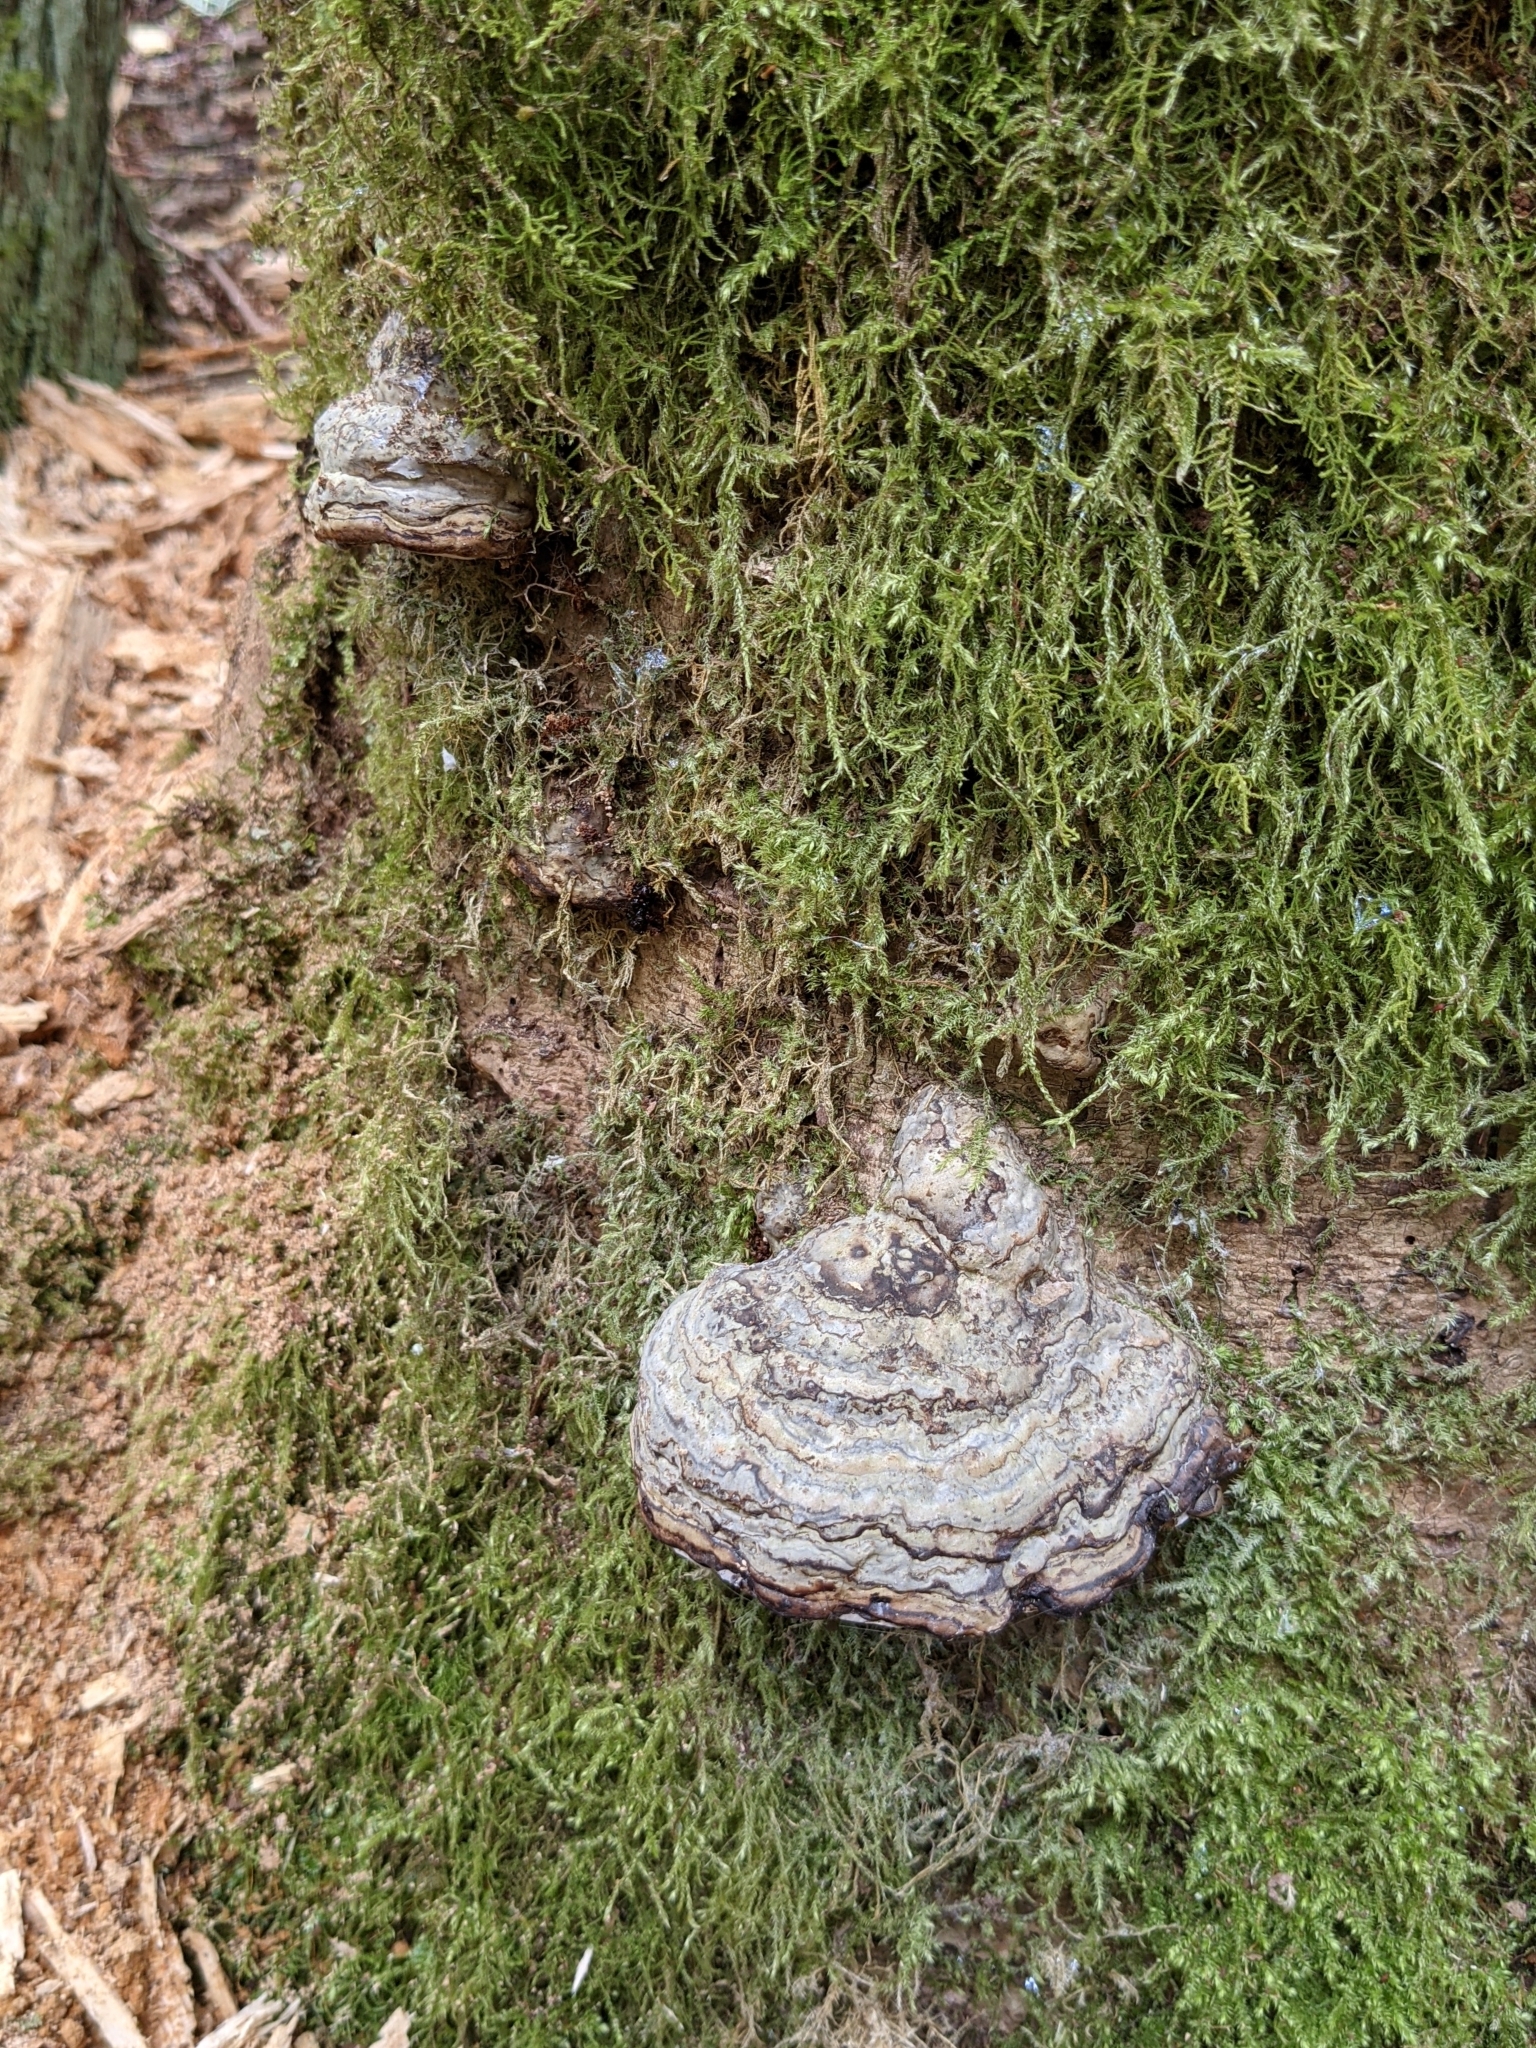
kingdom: Fungi
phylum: Basidiomycota
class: Agaricomycetes
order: Polyporales
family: Polyporaceae
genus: Fomes
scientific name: Fomes fomentarius
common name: Hoof fungus
